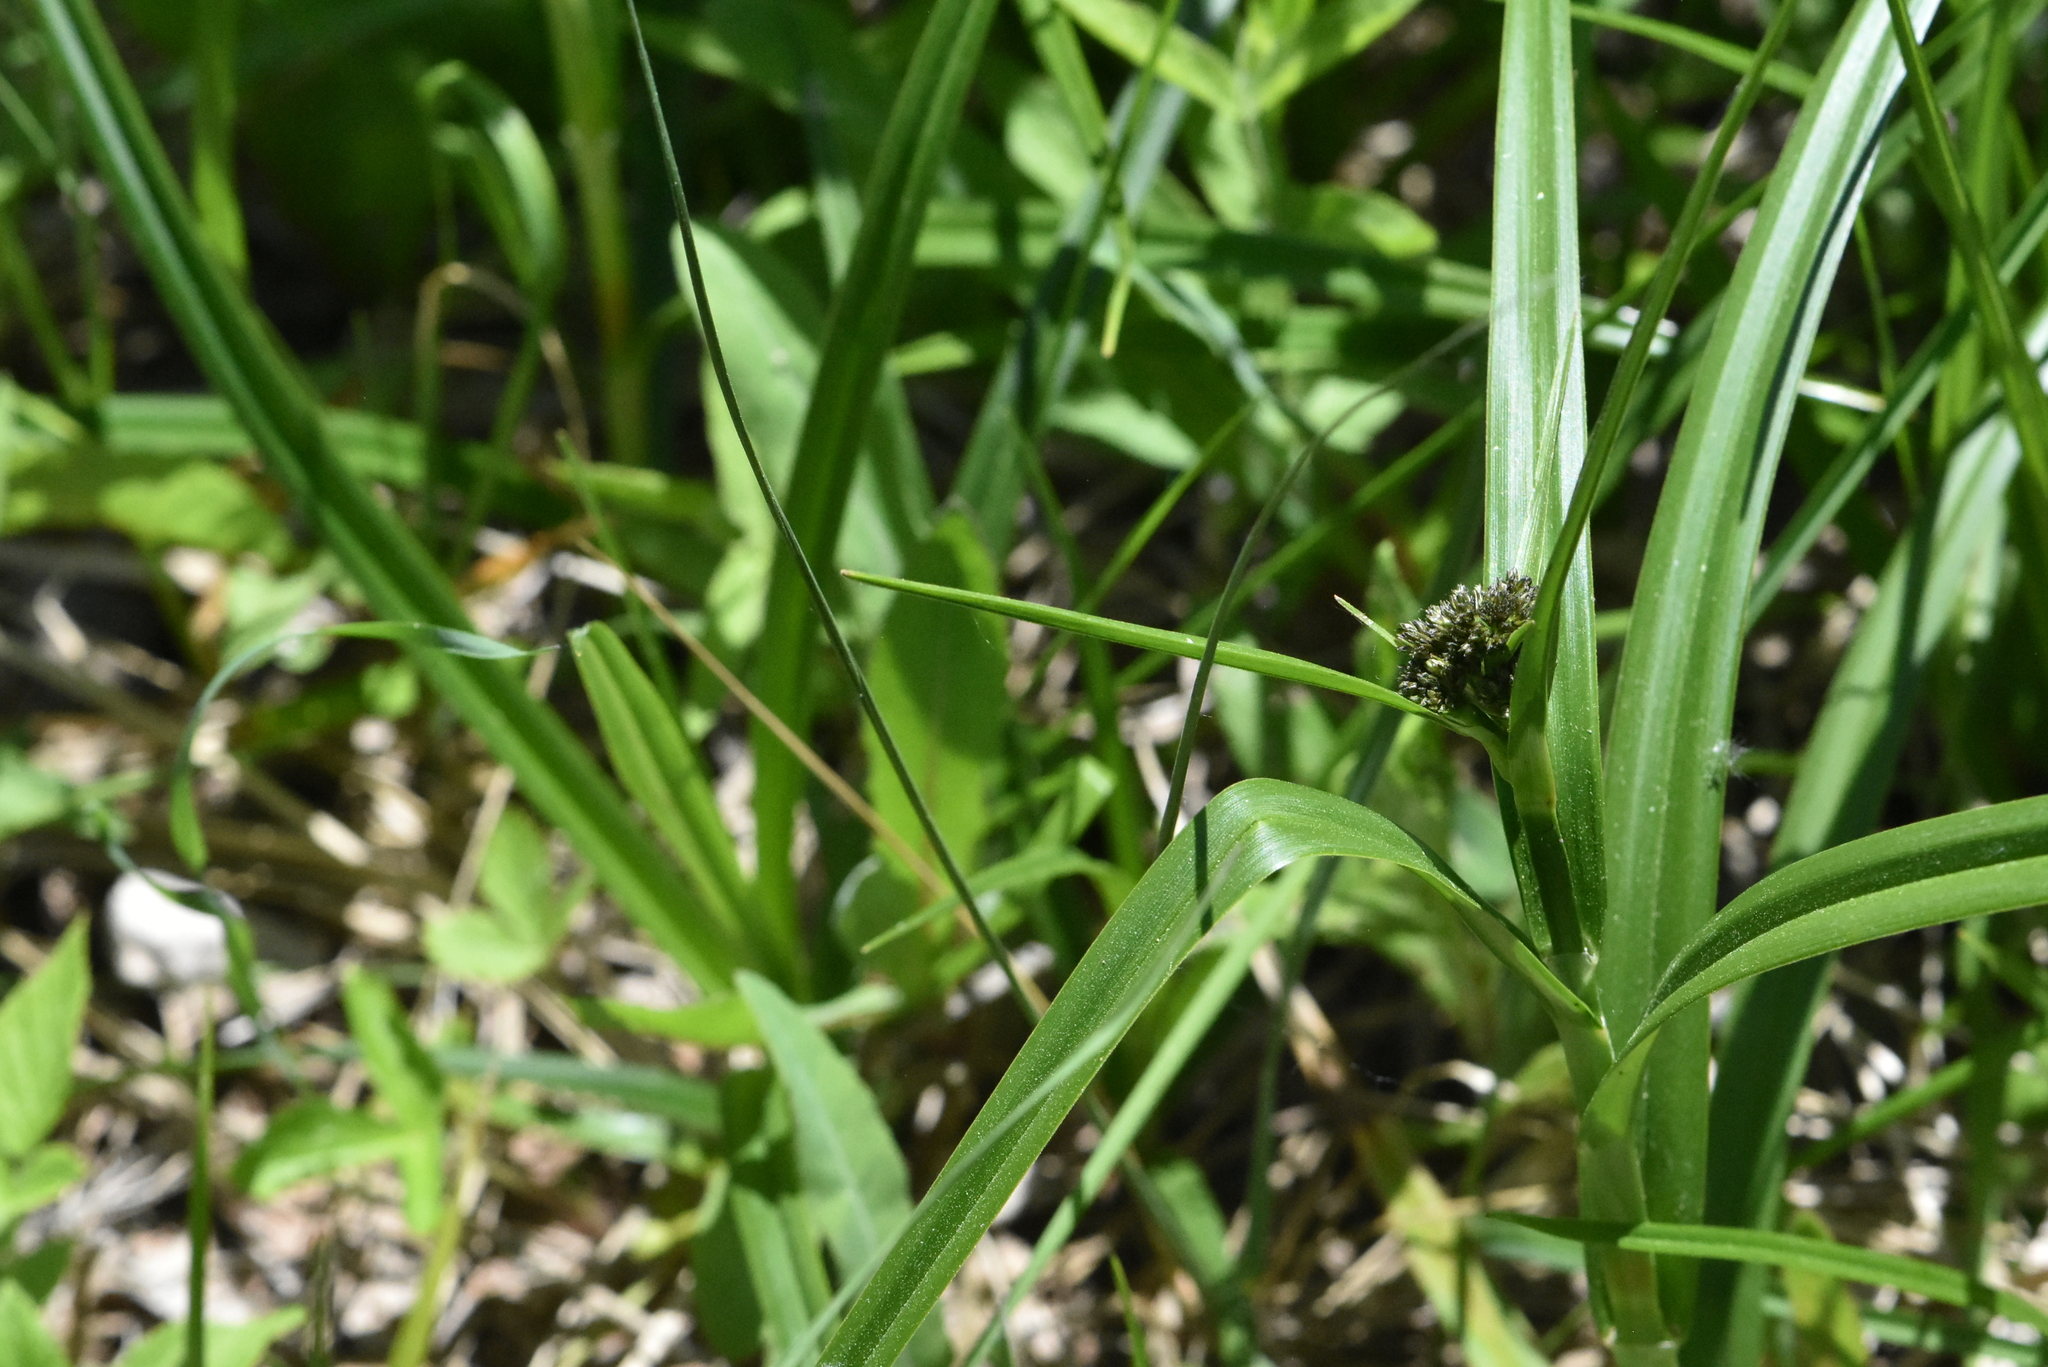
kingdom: Plantae
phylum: Tracheophyta
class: Liliopsida
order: Poales
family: Cyperaceae
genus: Scirpus
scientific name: Scirpus sylvaticus
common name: Wood club-rush
